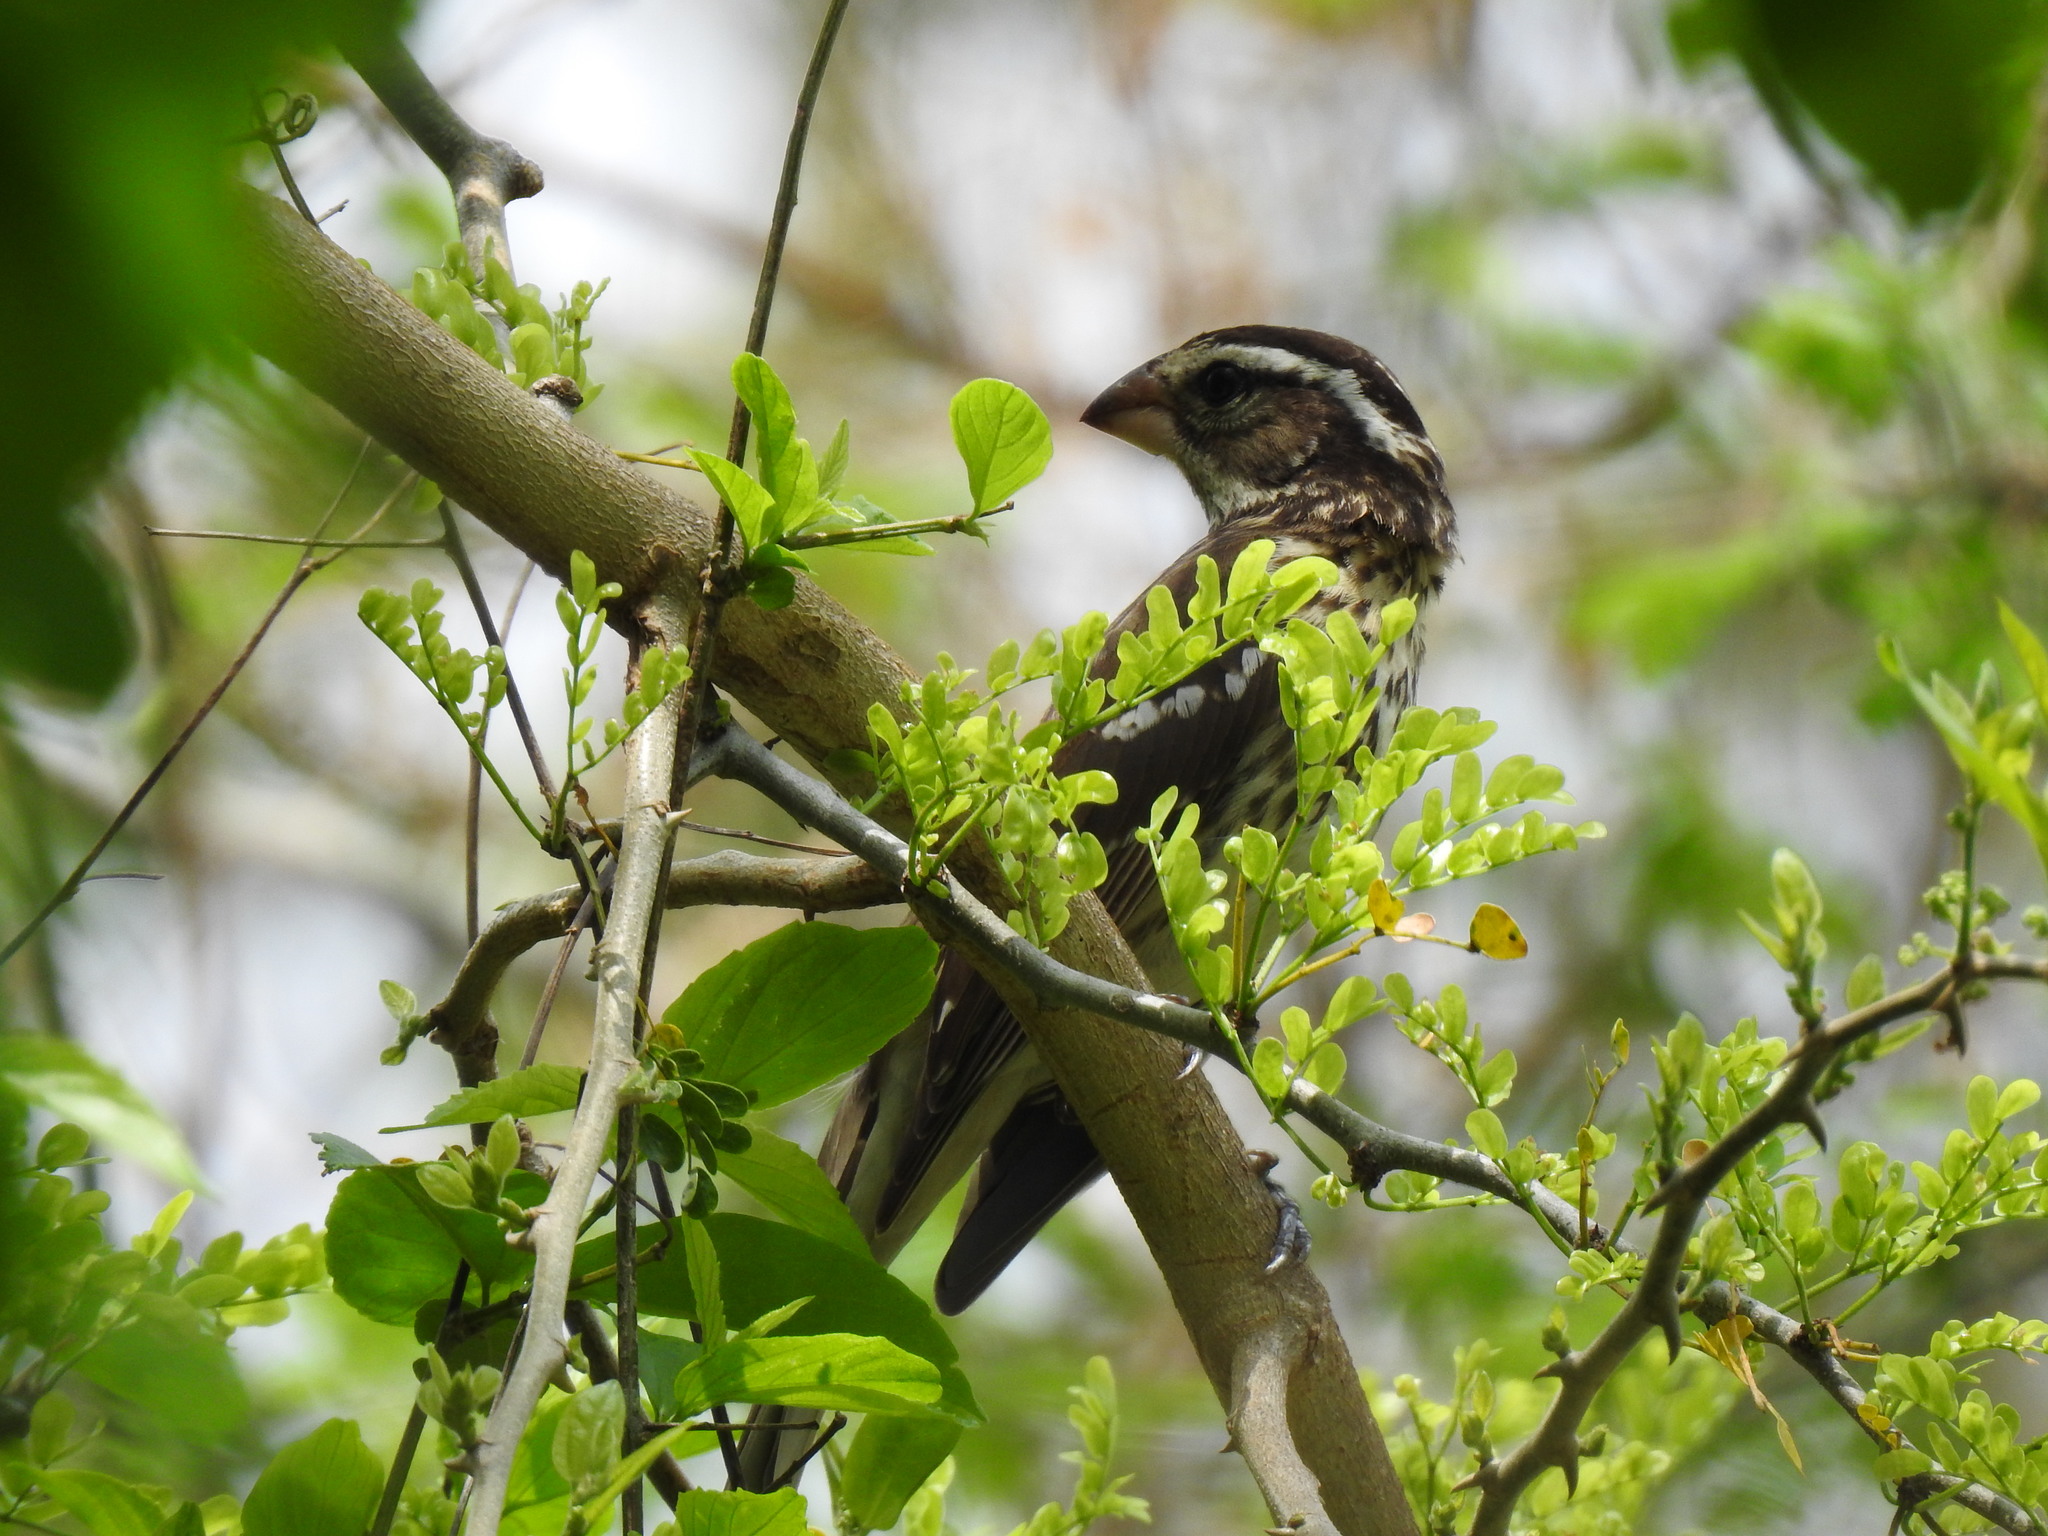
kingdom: Animalia
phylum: Chordata
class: Aves
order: Passeriformes
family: Cardinalidae
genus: Pheucticus
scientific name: Pheucticus ludovicianus
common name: Rose-breasted grosbeak
